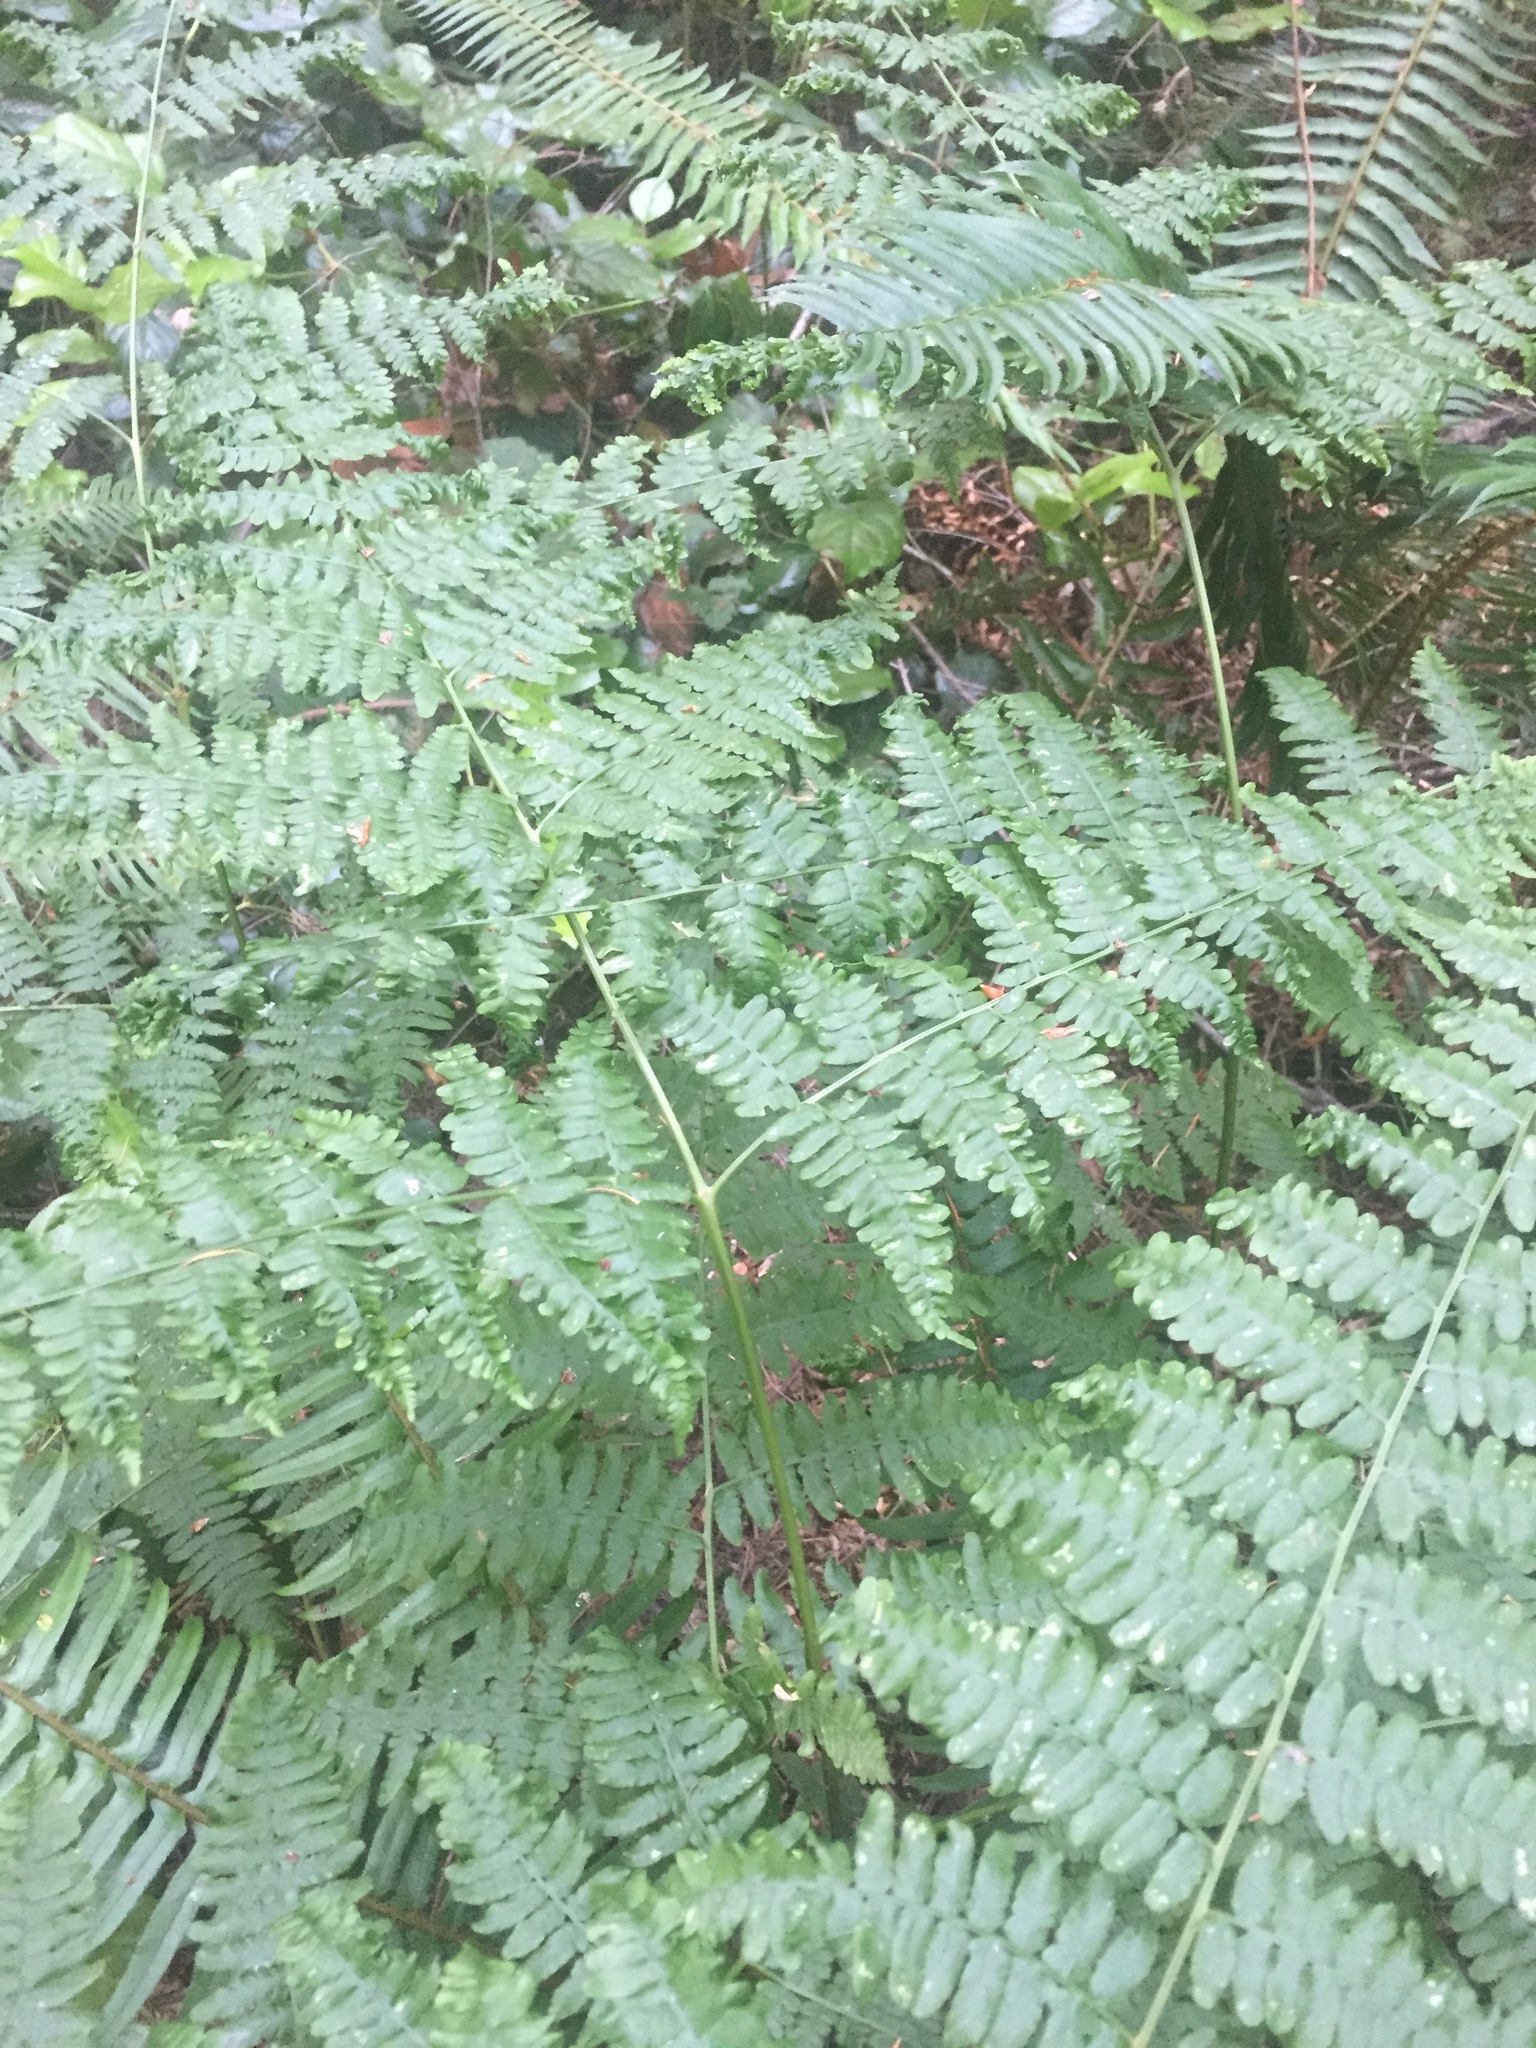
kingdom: Plantae
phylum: Tracheophyta
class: Polypodiopsida
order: Polypodiales
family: Dennstaedtiaceae
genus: Pteridium
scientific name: Pteridium aquilinum
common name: Bracken
